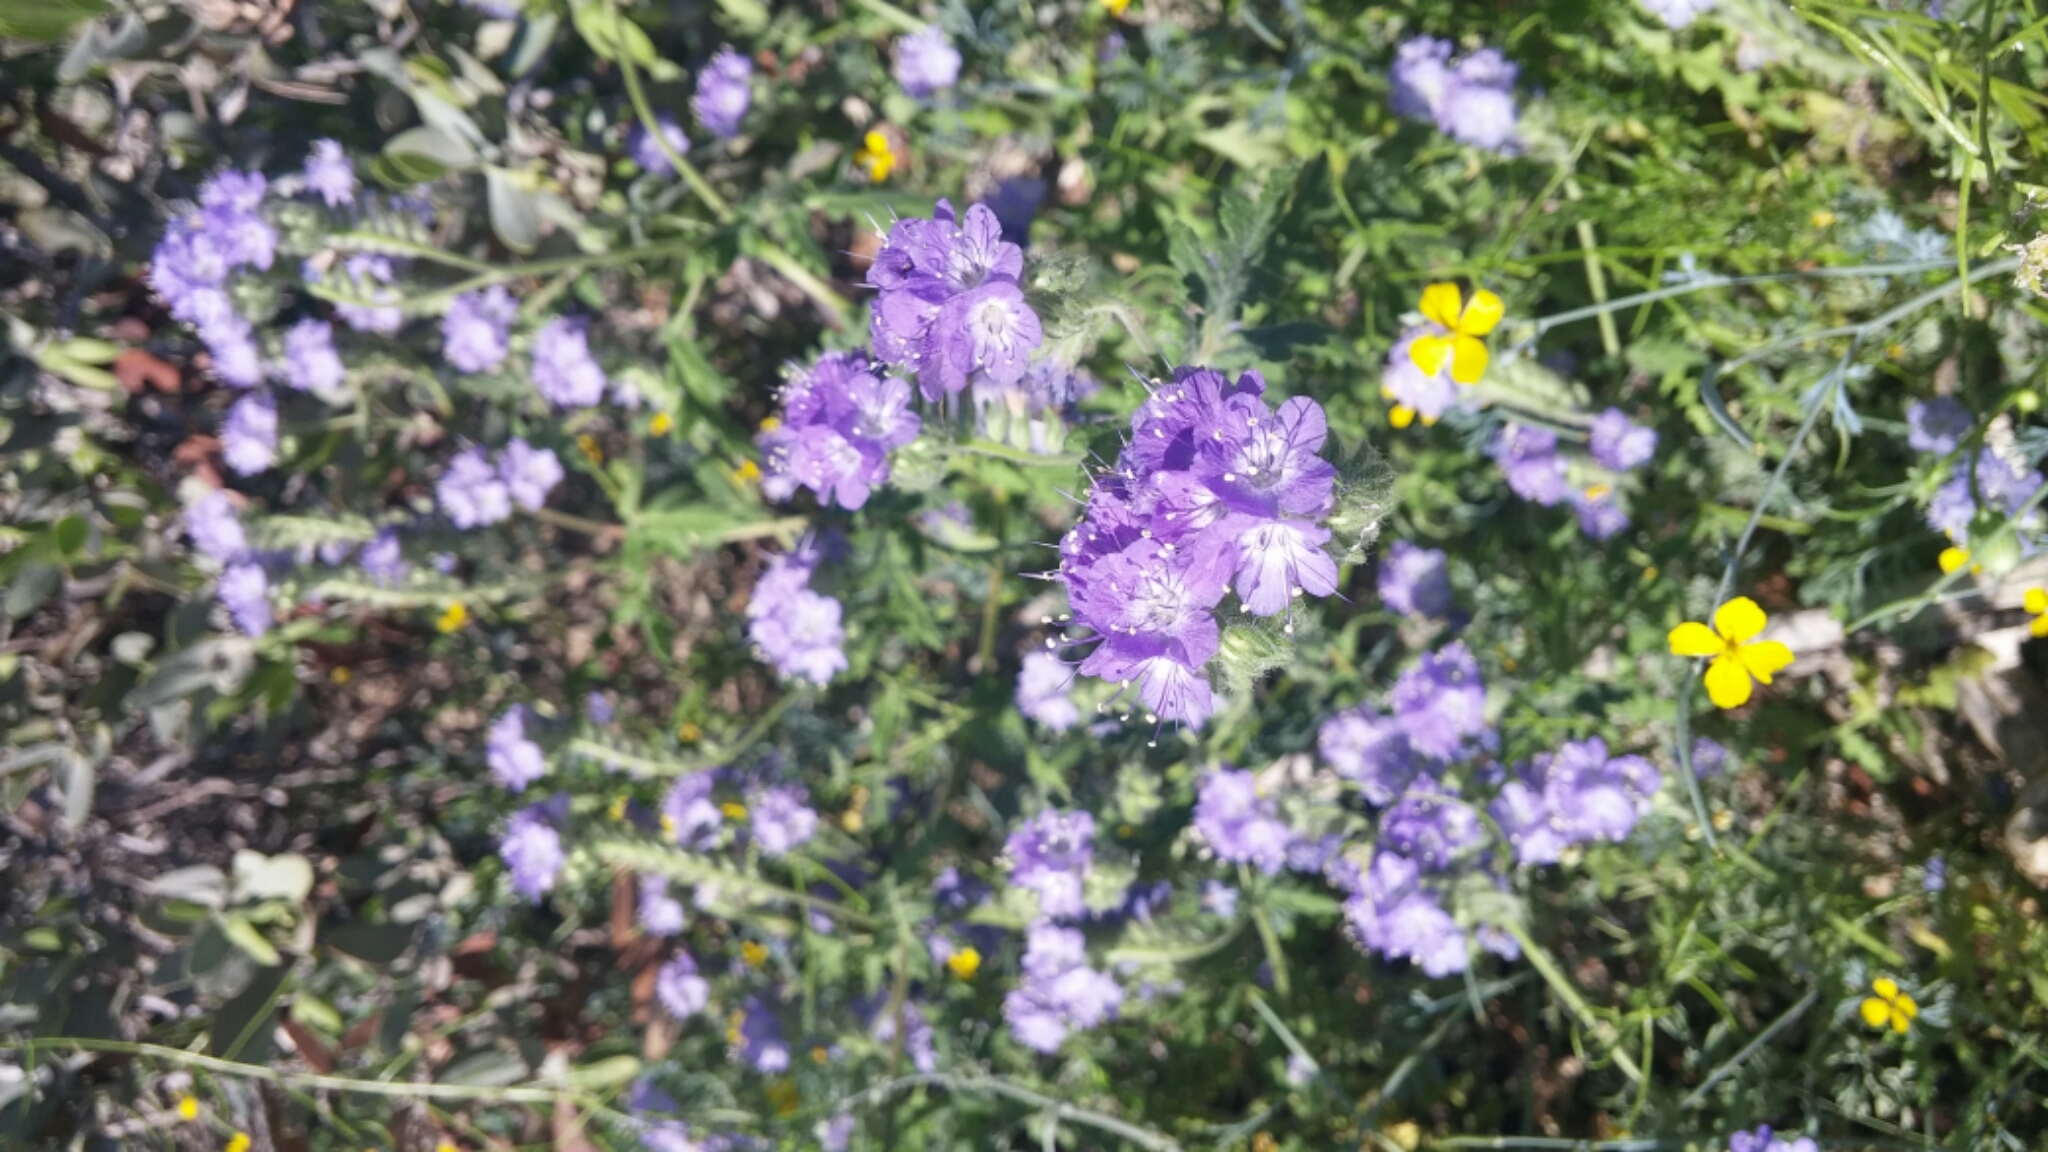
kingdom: Plantae
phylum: Tracheophyta
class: Magnoliopsida
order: Boraginales
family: Hydrophyllaceae
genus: Phacelia
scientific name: Phacelia distans
